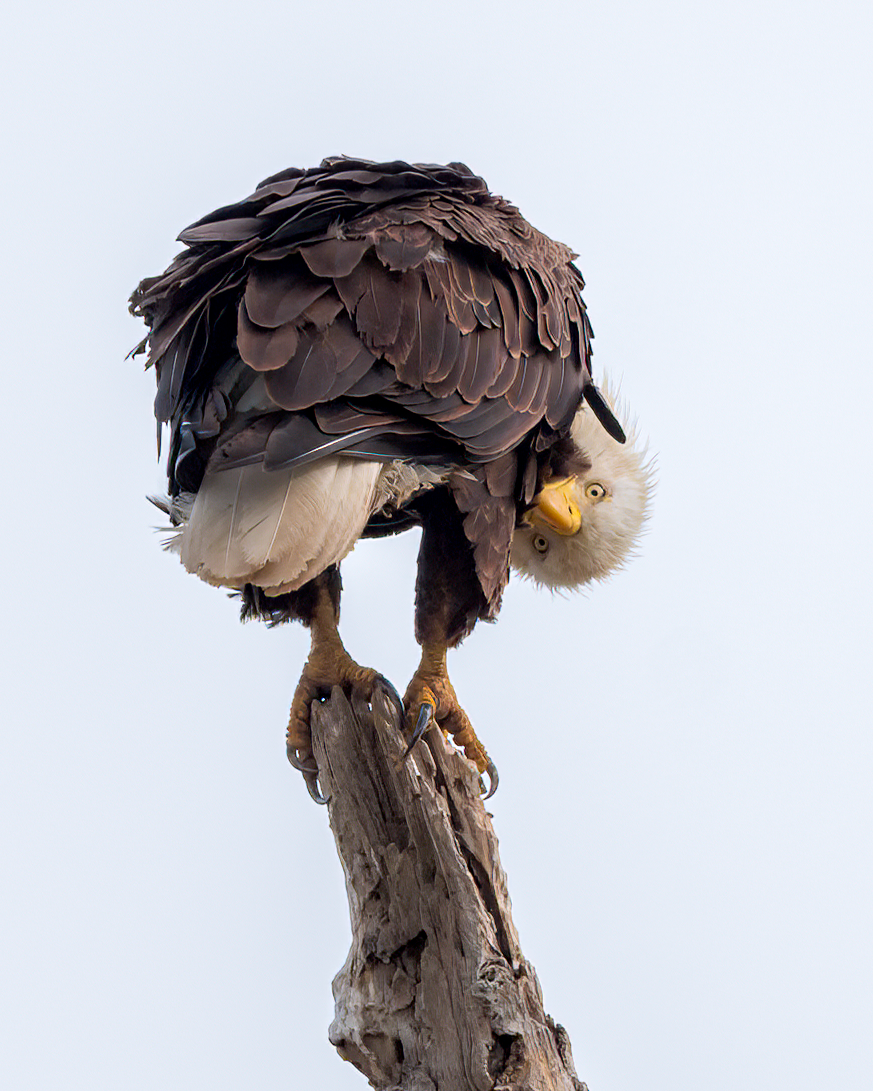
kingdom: Animalia
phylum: Chordata
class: Aves
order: Accipitriformes
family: Accipitridae
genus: Haliaeetus
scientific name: Haliaeetus leucocephalus
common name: Bald eagle
